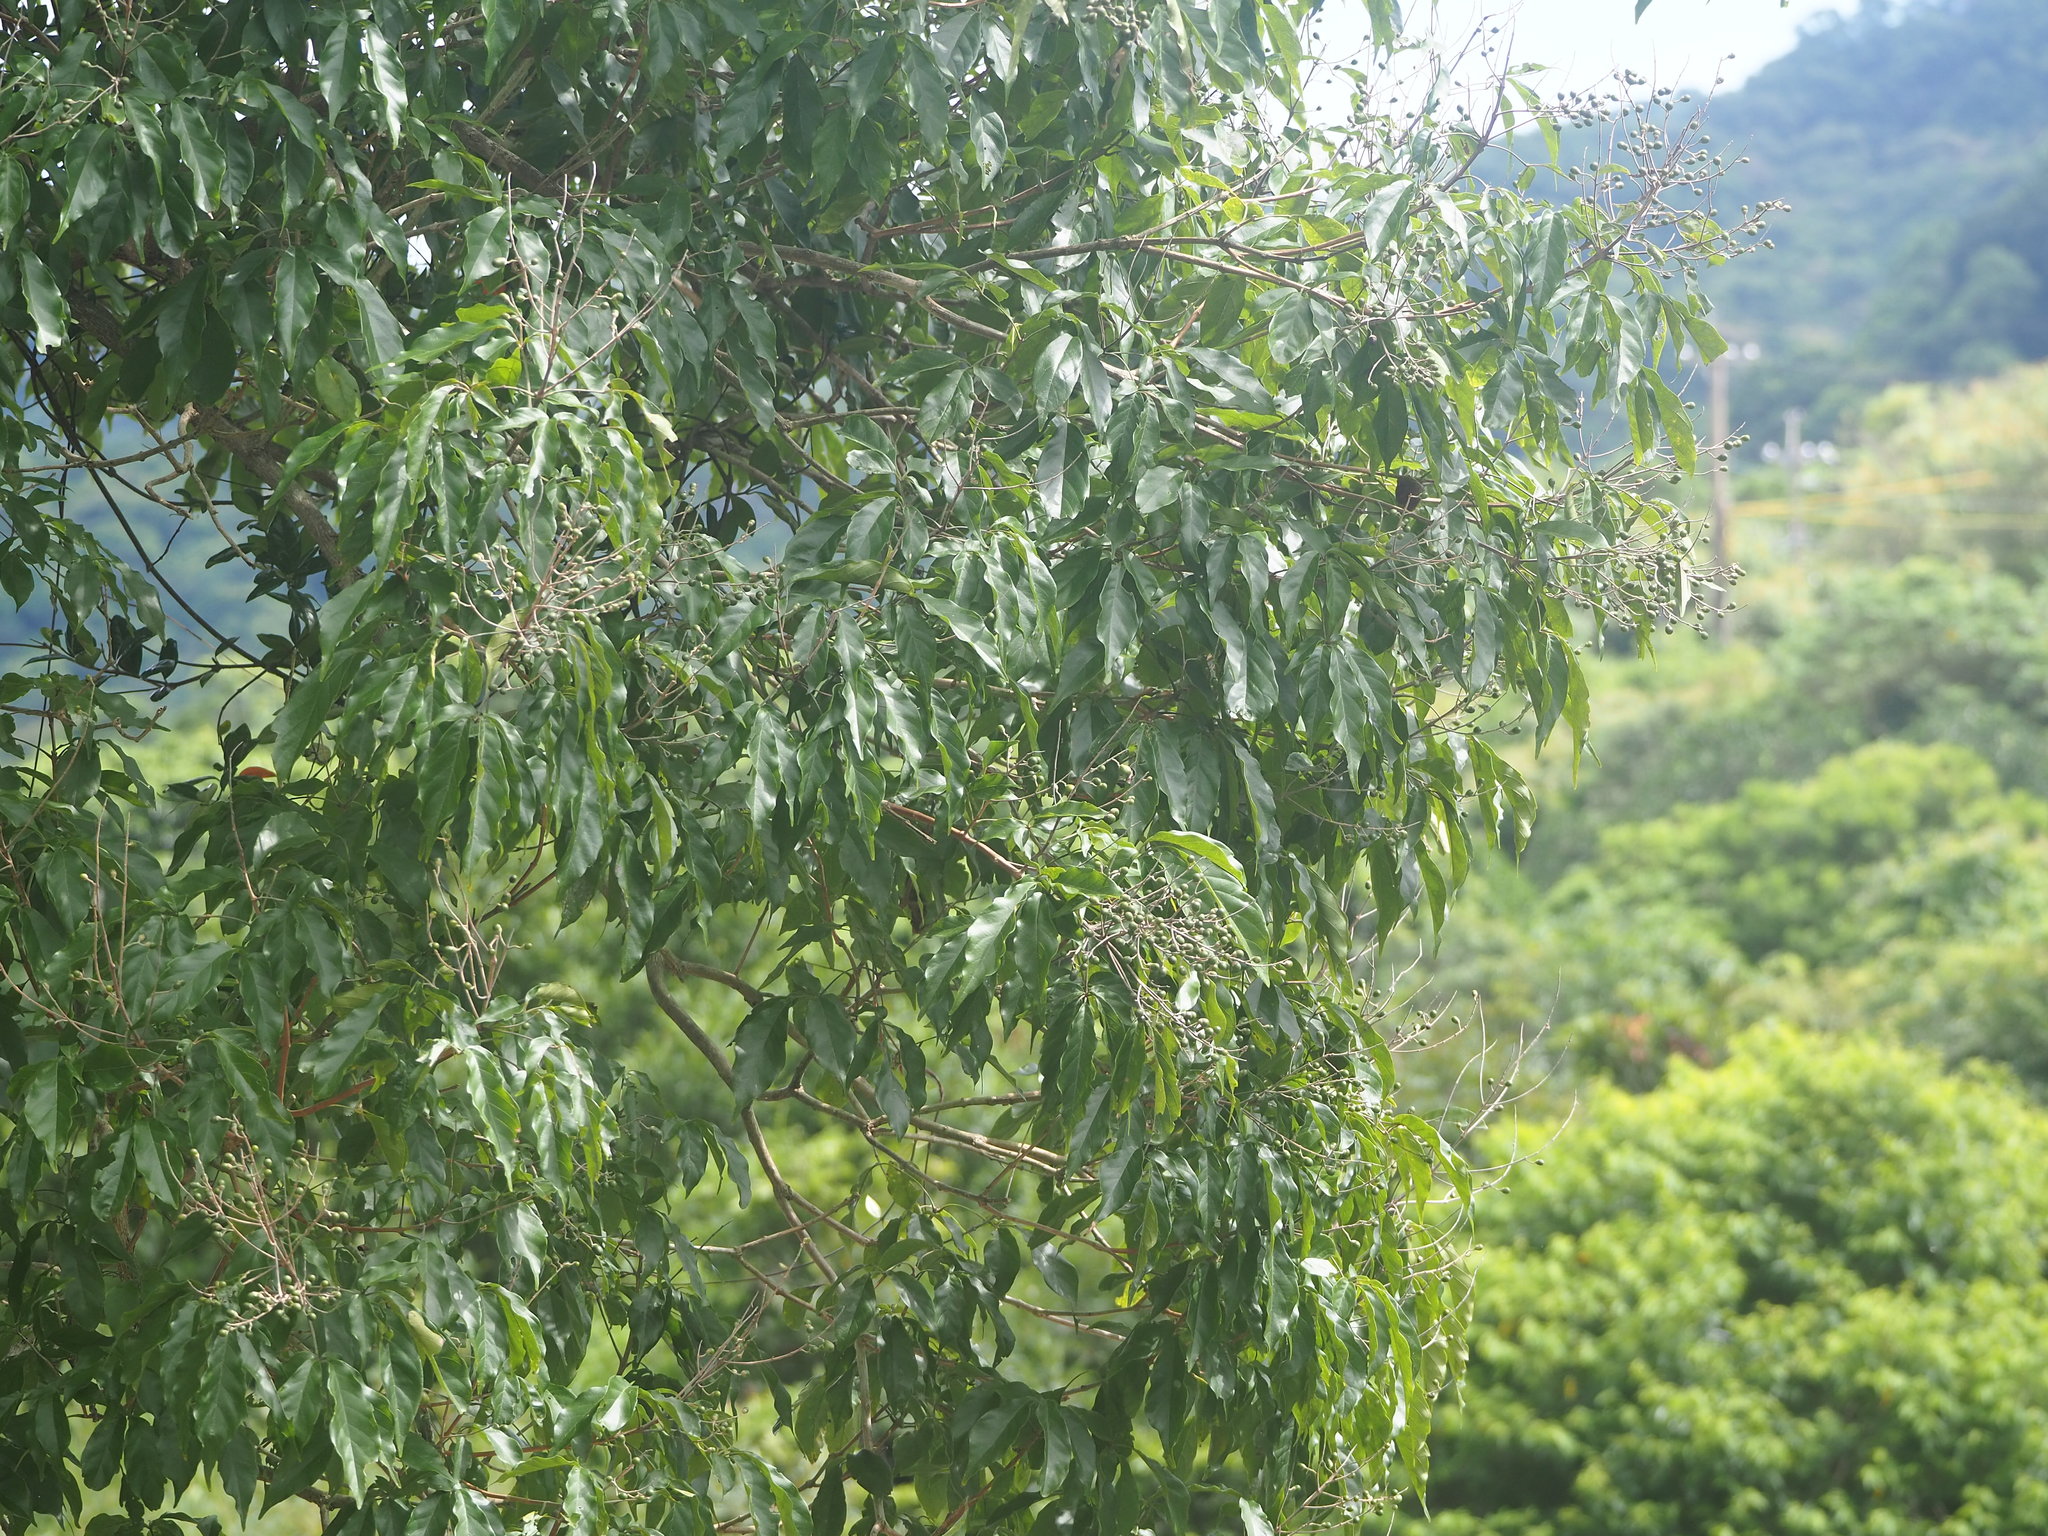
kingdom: Plantae
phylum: Tracheophyta
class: Magnoliopsida
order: Lamiales
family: Lamiaceae
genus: Vitex
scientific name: Vitex quinata
